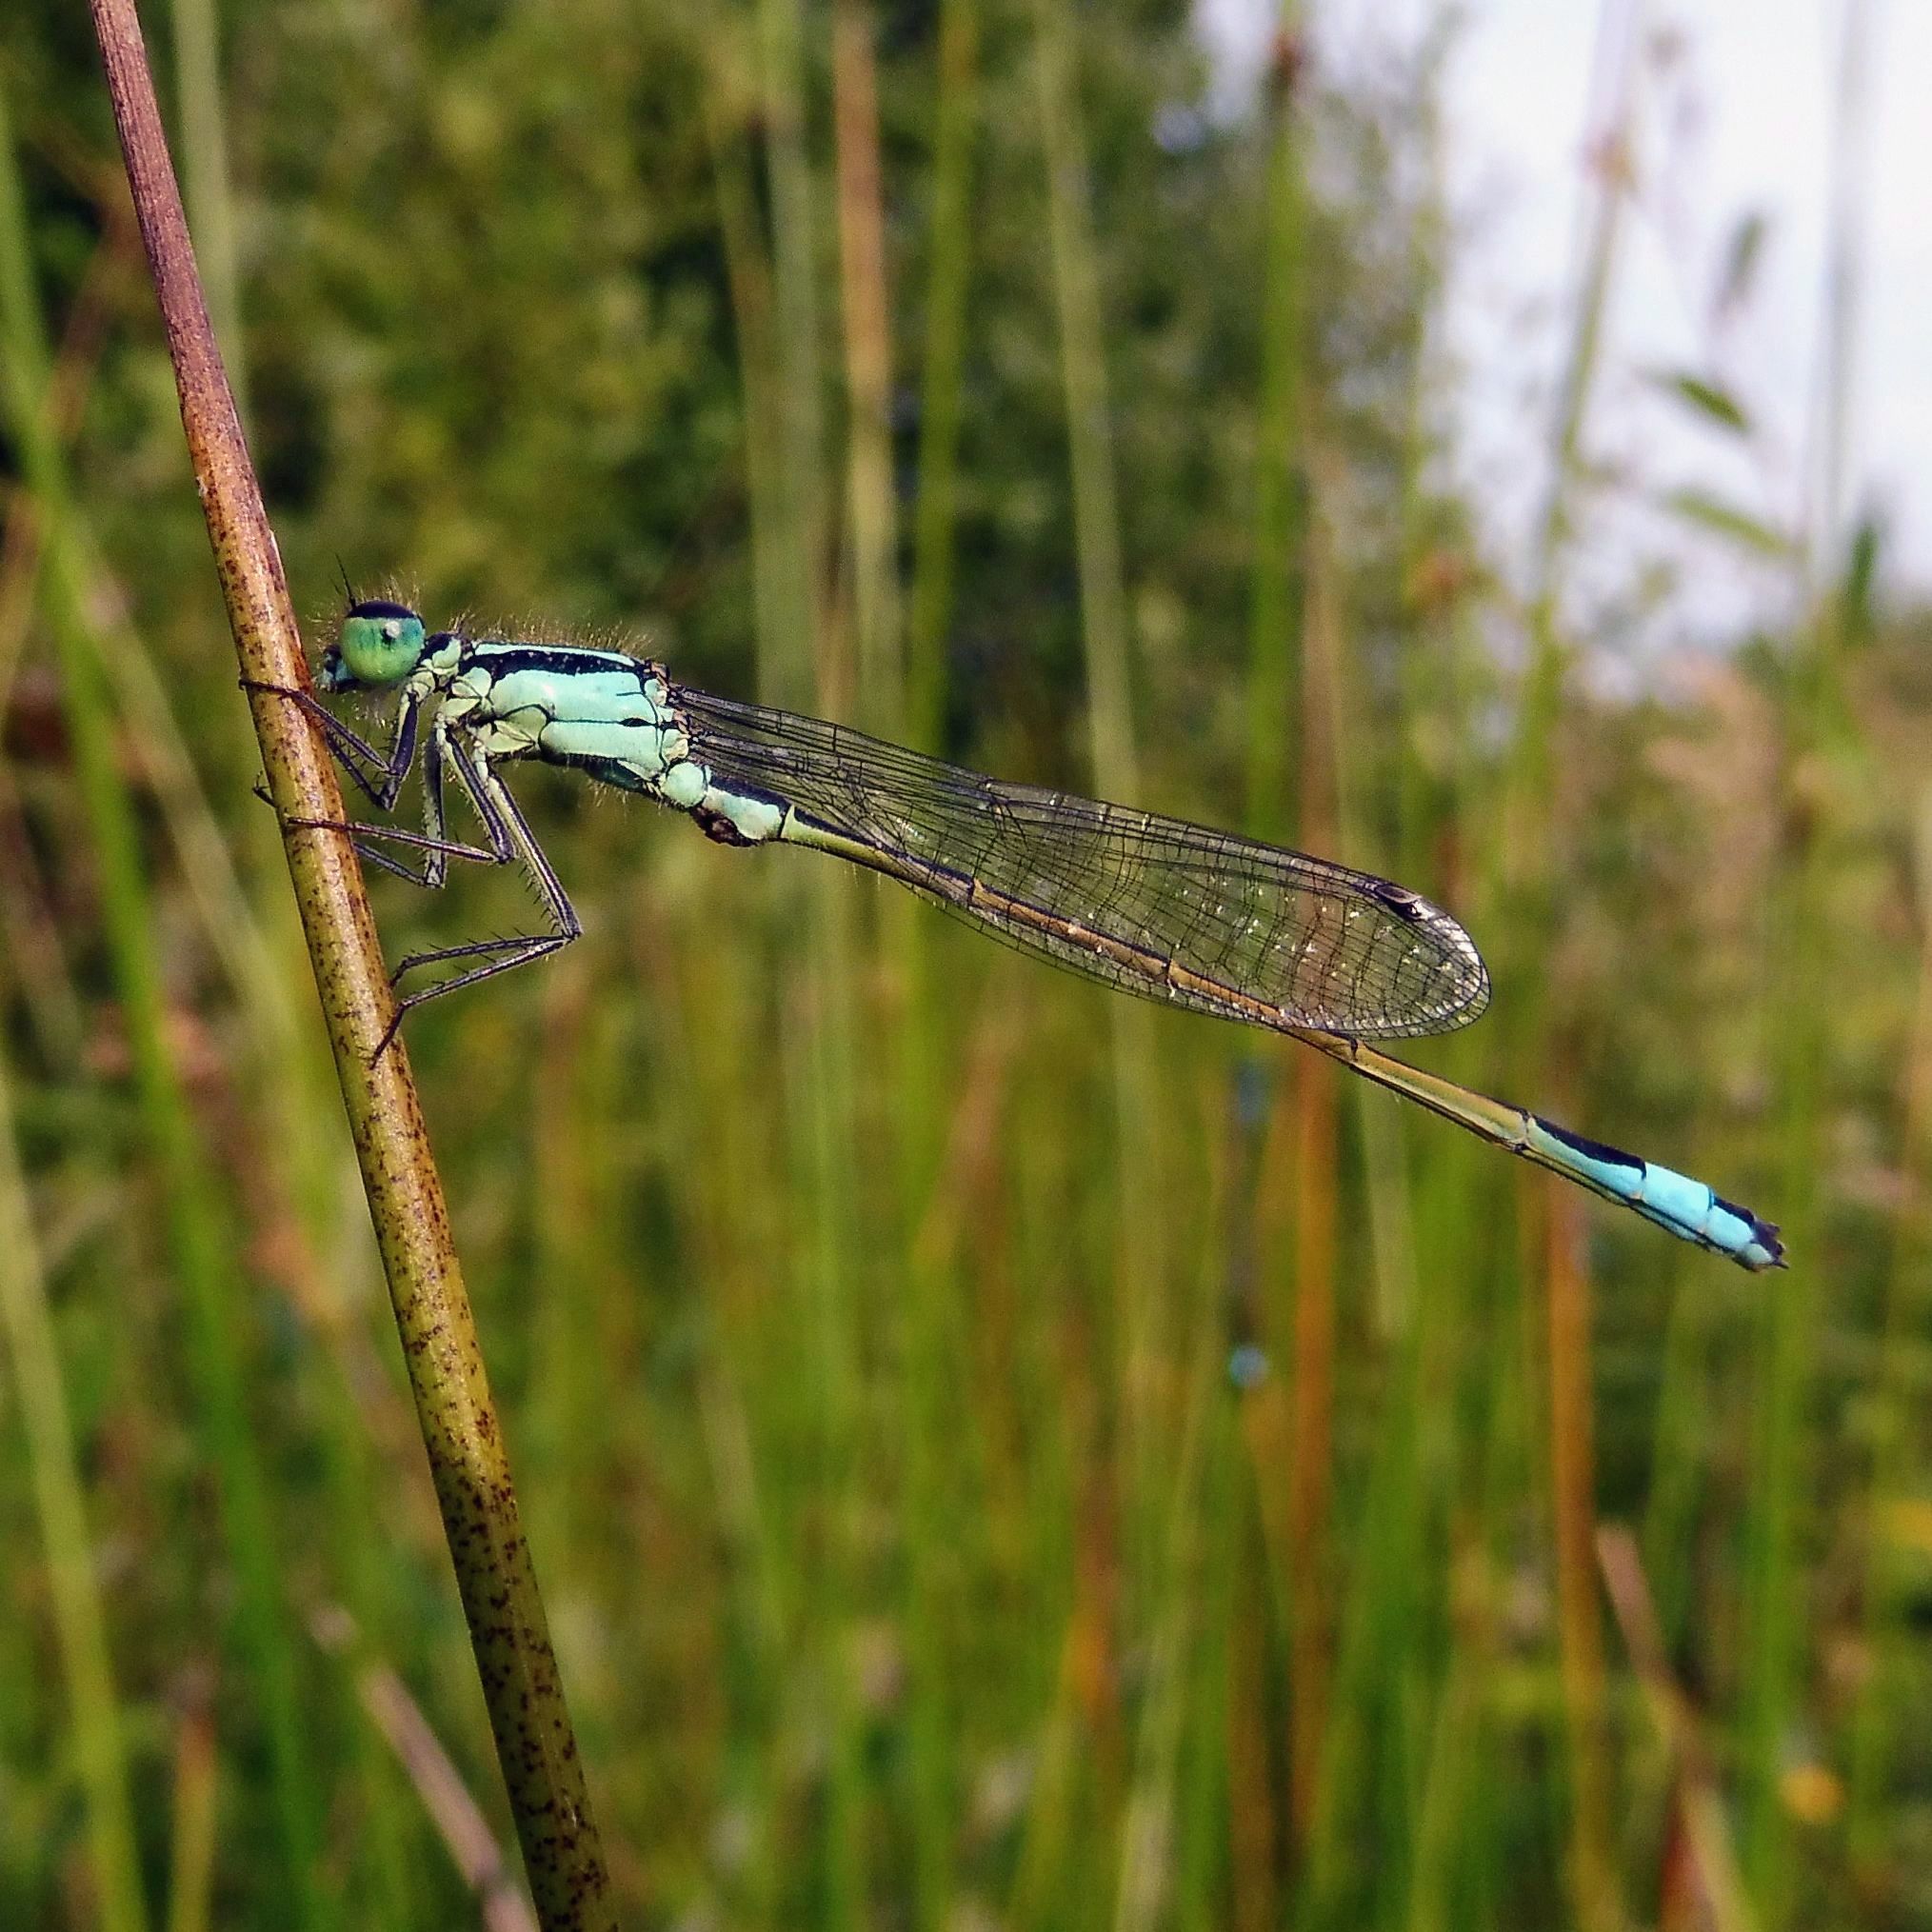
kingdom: Animalia
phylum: Arthropoda
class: Insecta
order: Odonata
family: Coenagrionidae
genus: Ischnura
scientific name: Ischnura elegans
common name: Blue-tailed damselfly
